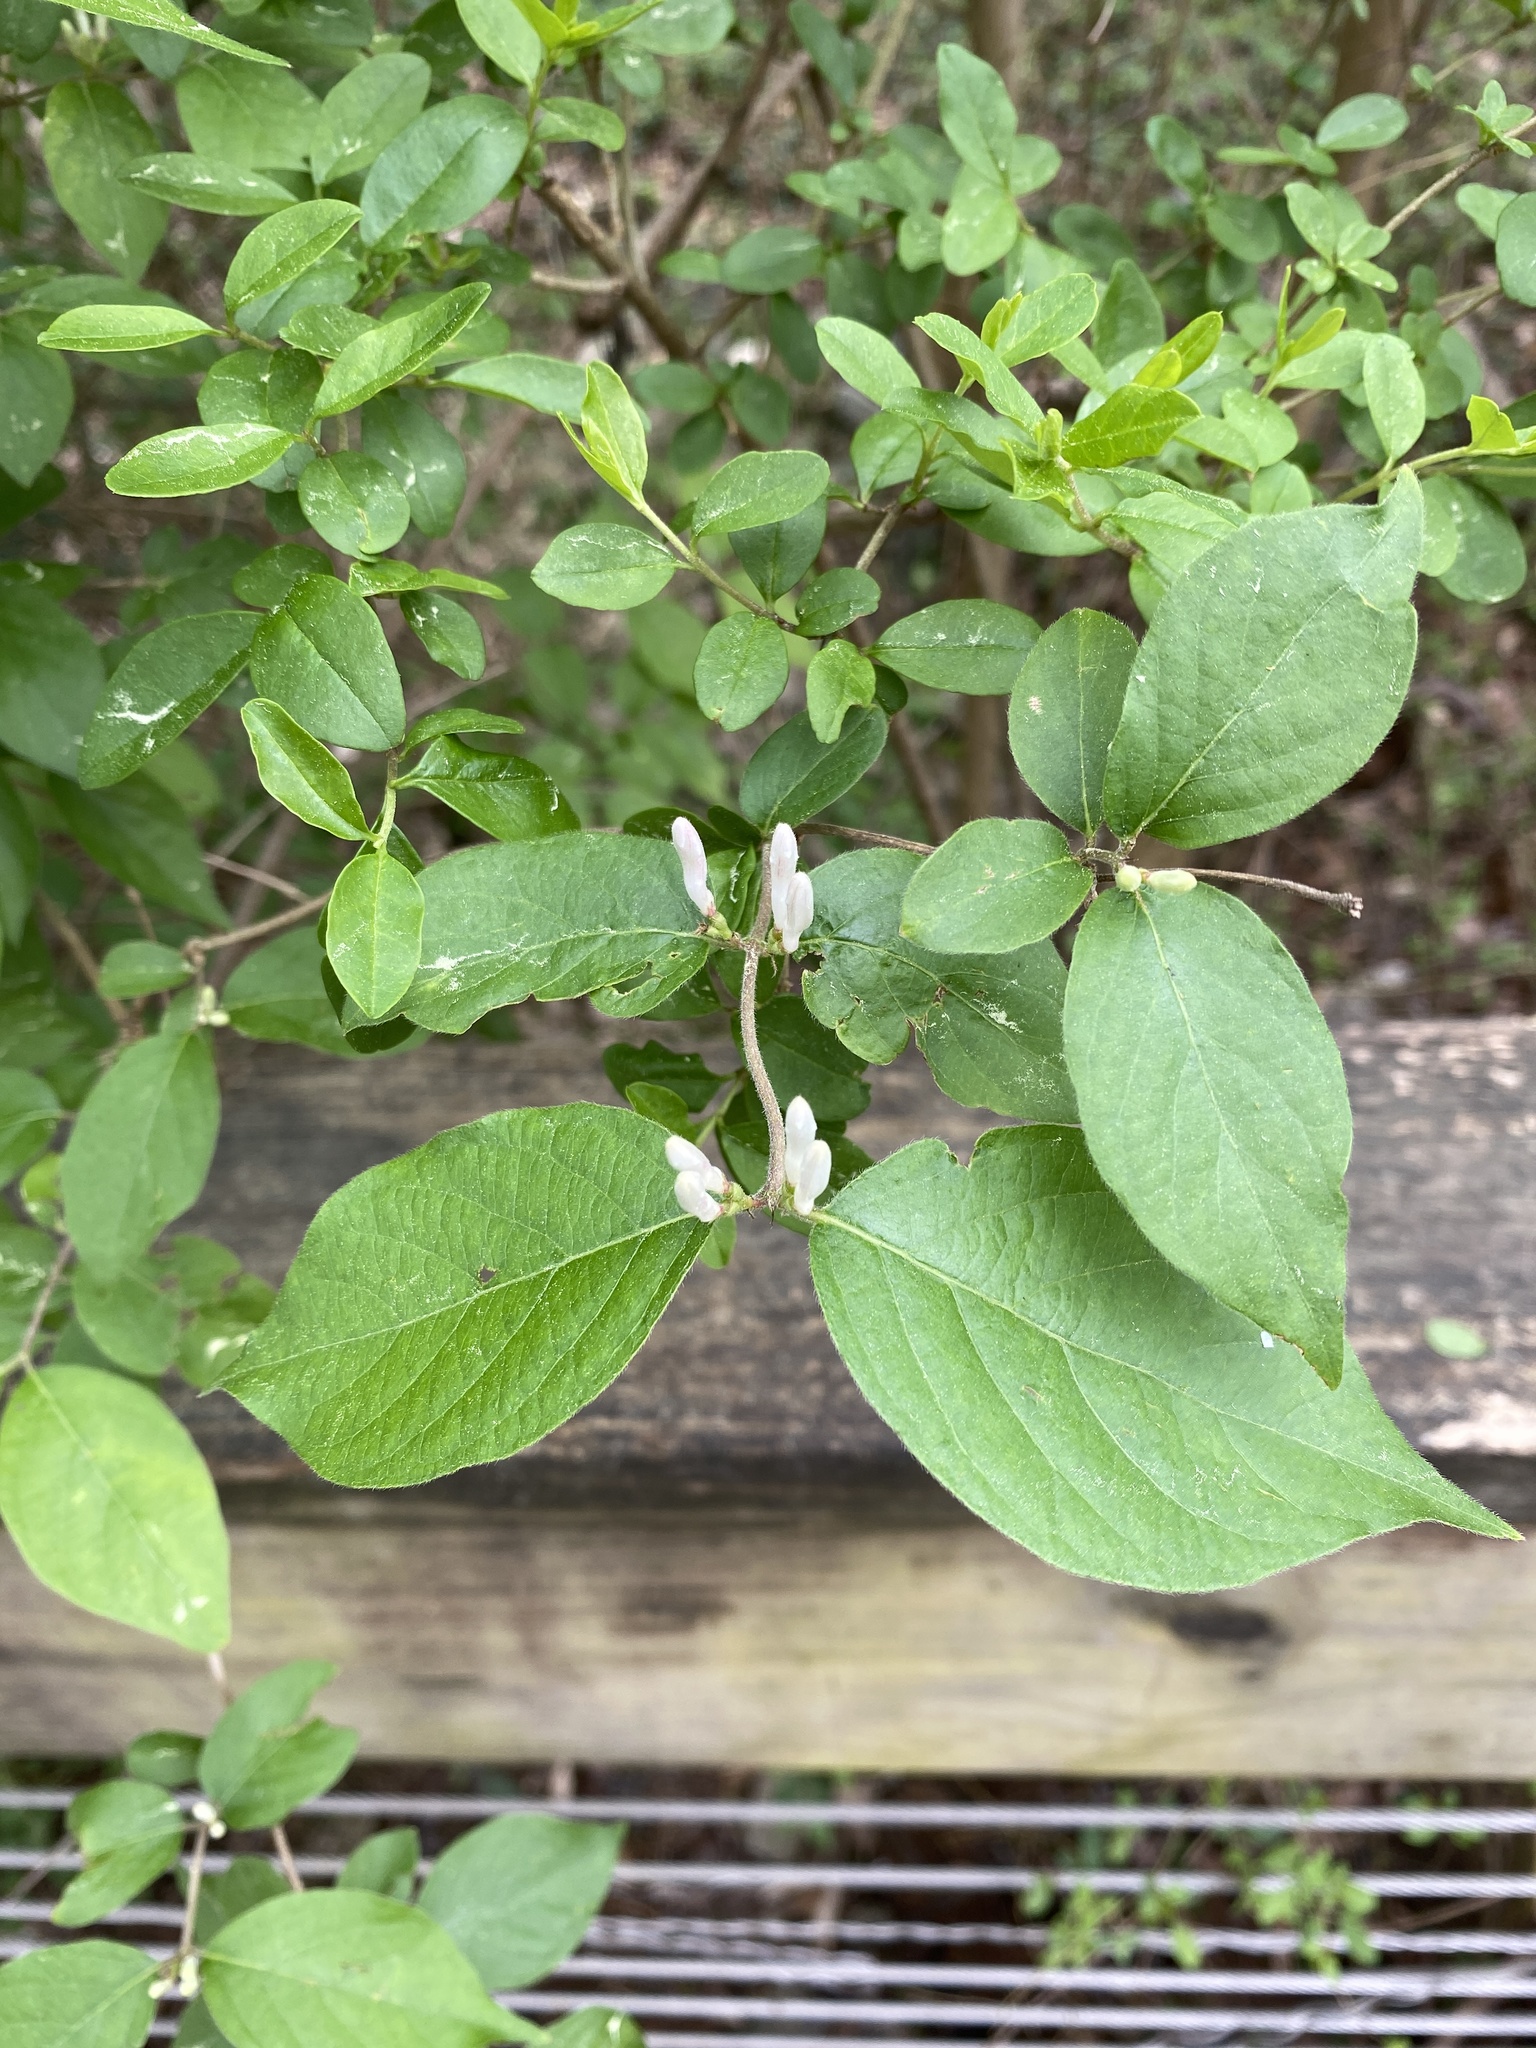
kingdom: Plantae
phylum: Tracheophyta
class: Magnoliopsida
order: Dipsacales
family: Caprifoliaceae
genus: Lonicera
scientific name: Lonicera maackii
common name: Amur honeysuckle
